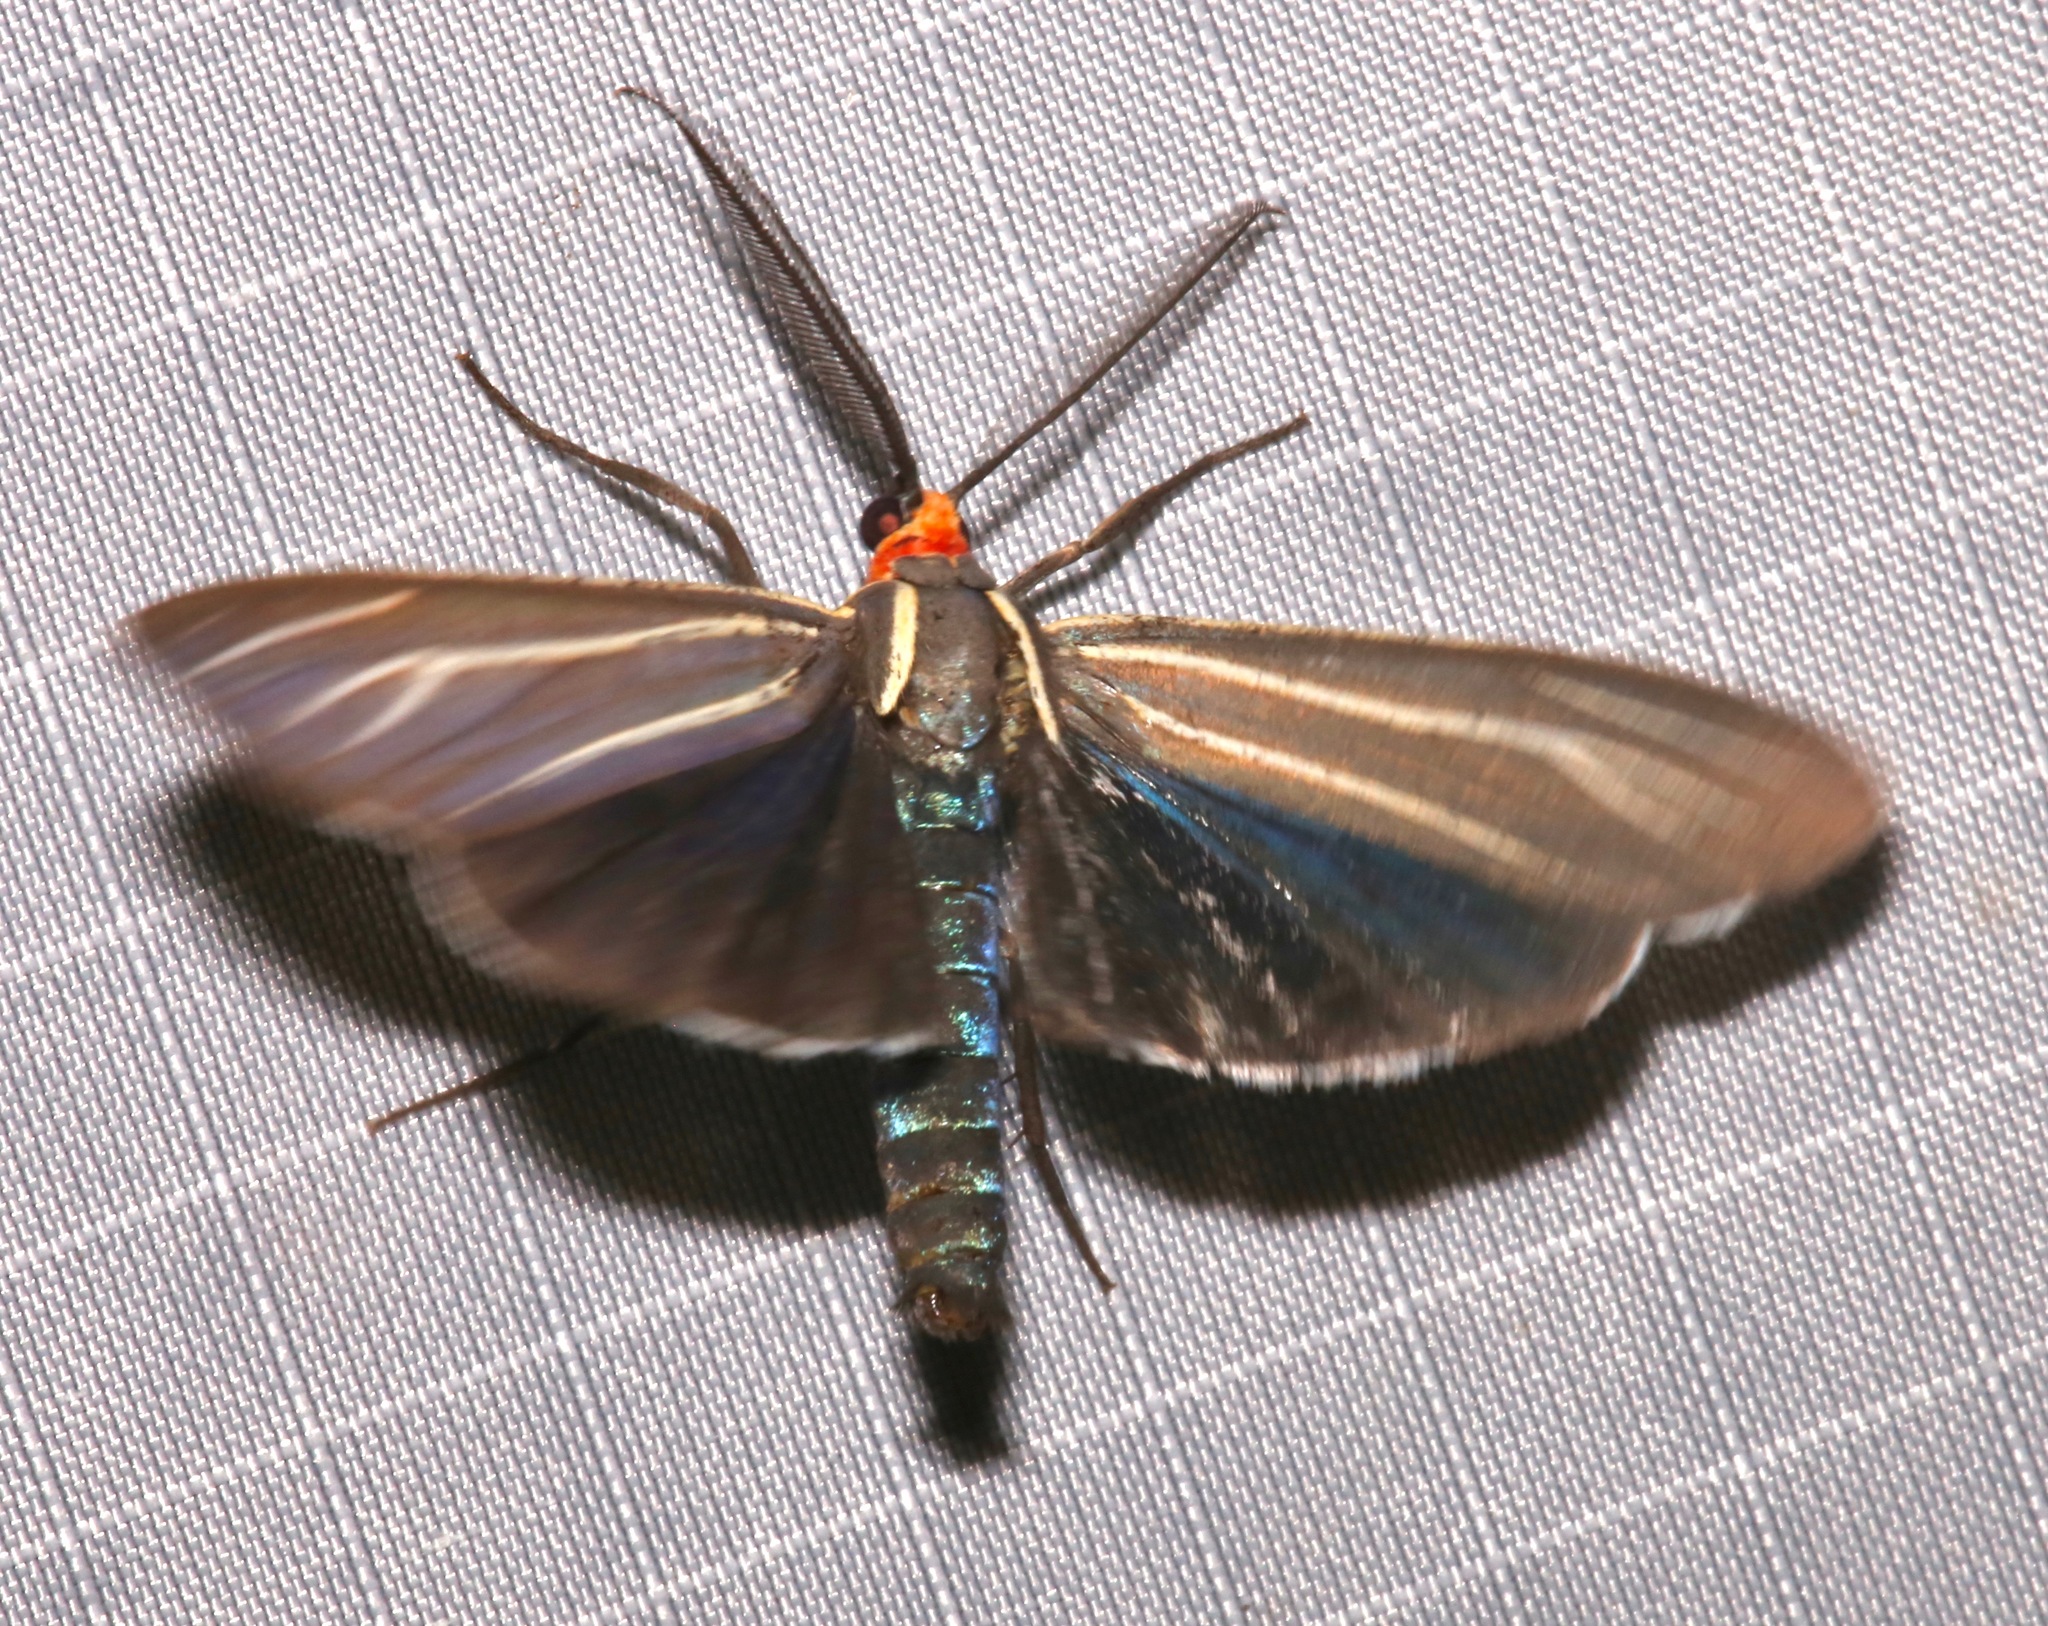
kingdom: Animalia
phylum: Arthropoda
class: Insecta
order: Lepidoptera
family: Erebidae
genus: Ctenucha
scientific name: Ctenucha venosa
